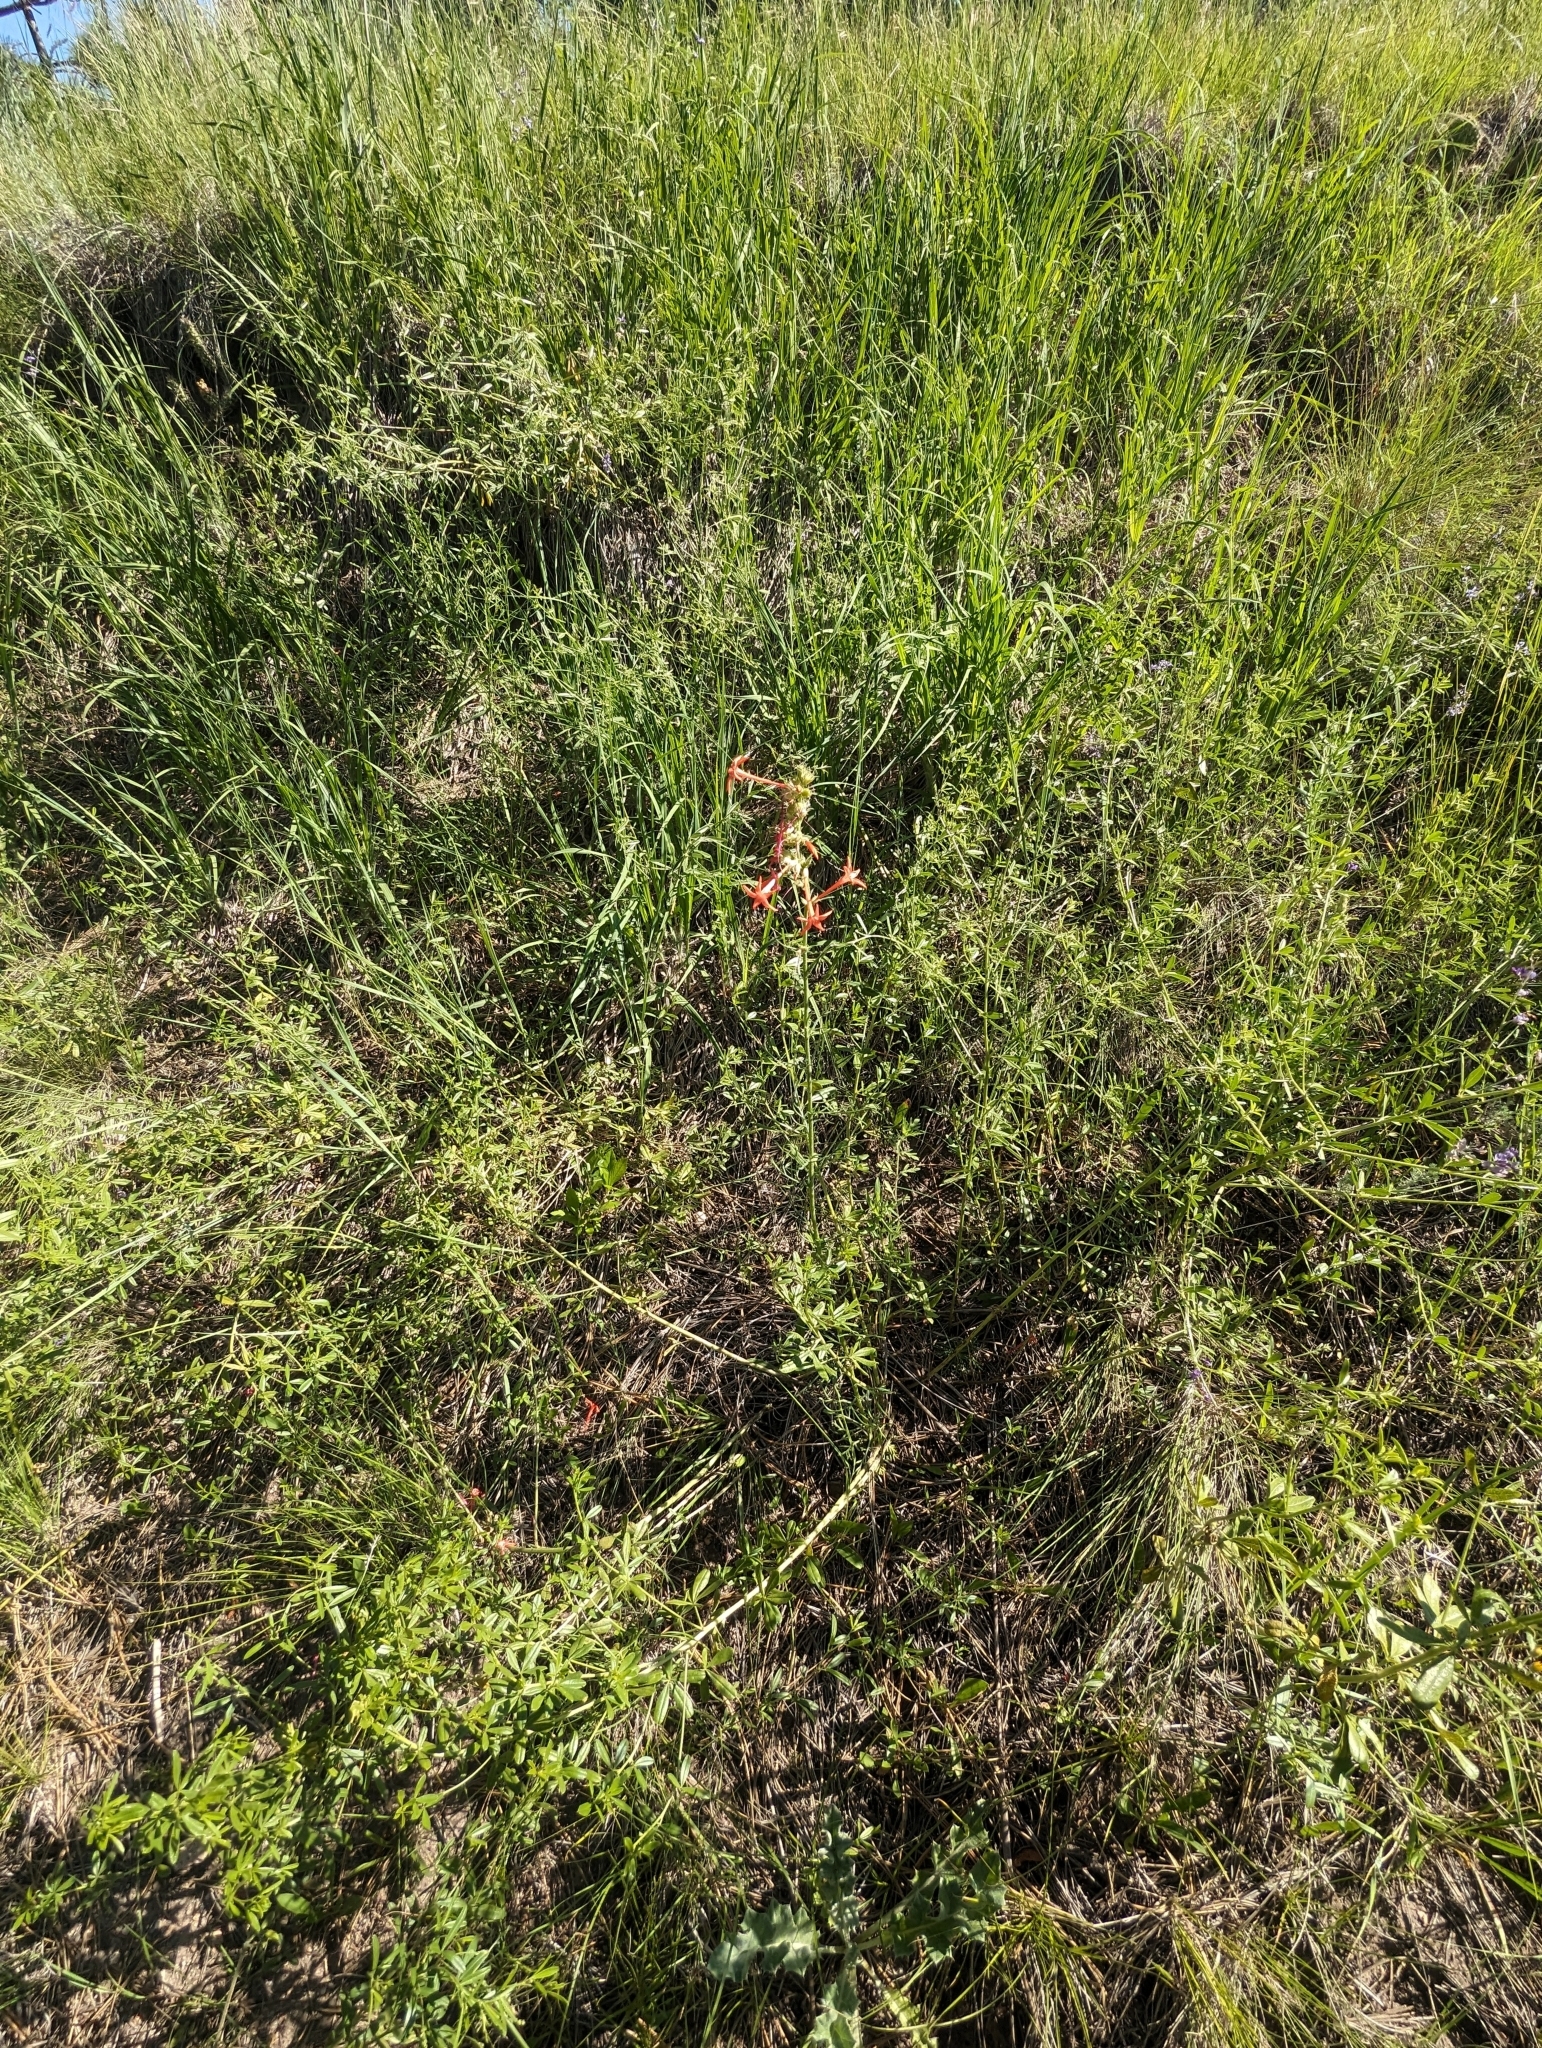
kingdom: Plantae
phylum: Tracheophyta
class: Magnoliopsida
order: Ericales
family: Polemoniaceae
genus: Ipomopsis
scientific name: Ipomopsis aggregata
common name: Scarlet gilia
